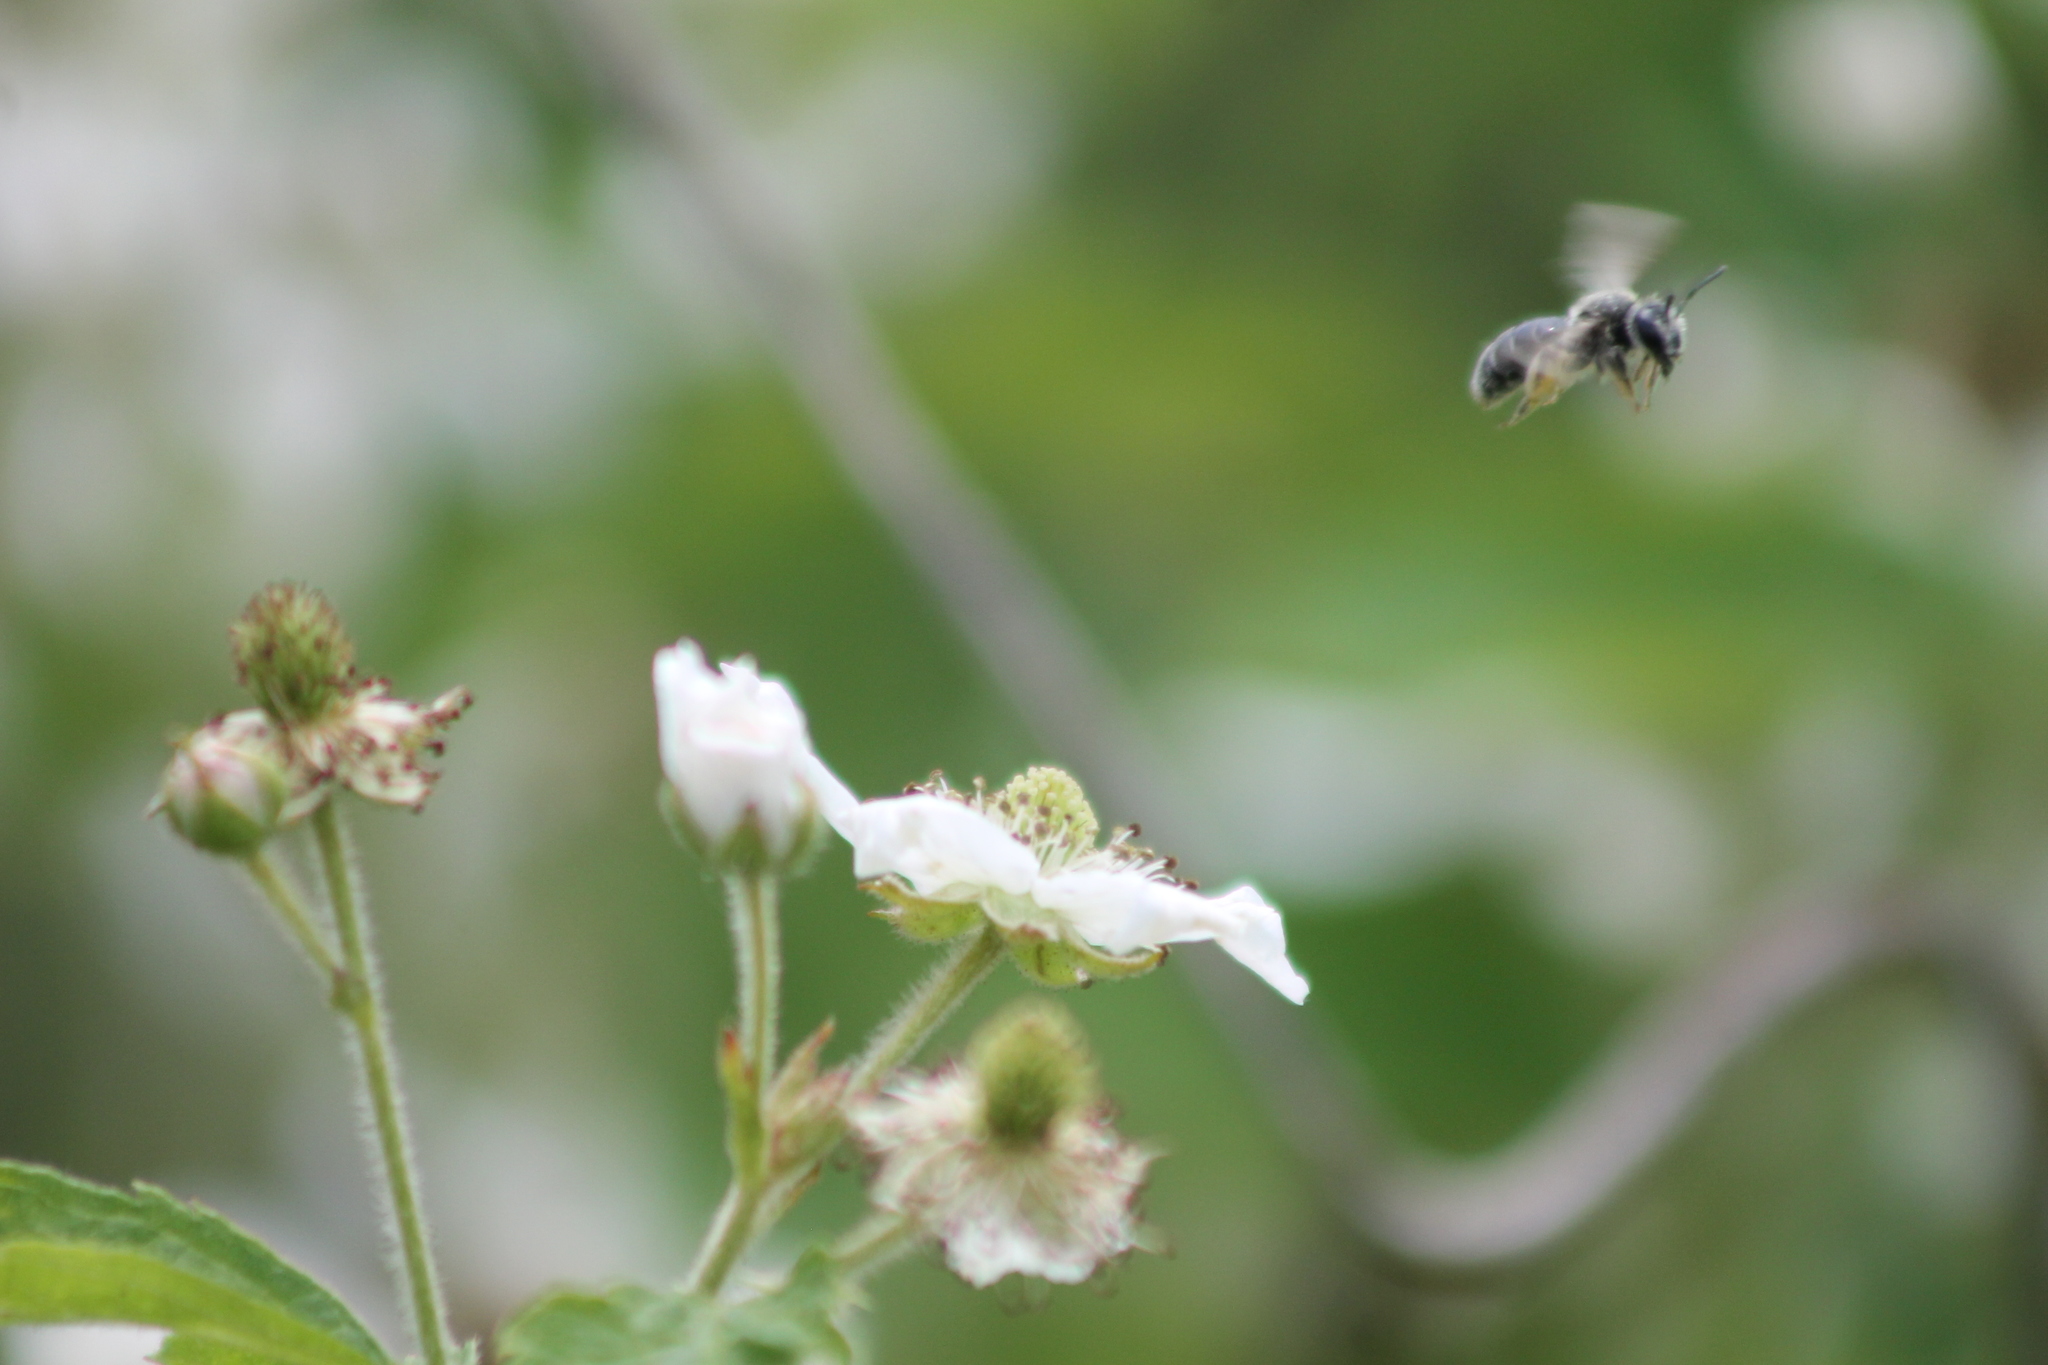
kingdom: Animalia
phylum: Arthropoda
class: Insecta
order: Hymenoptera
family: Andrenidae
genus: Andrena
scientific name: Andrena
